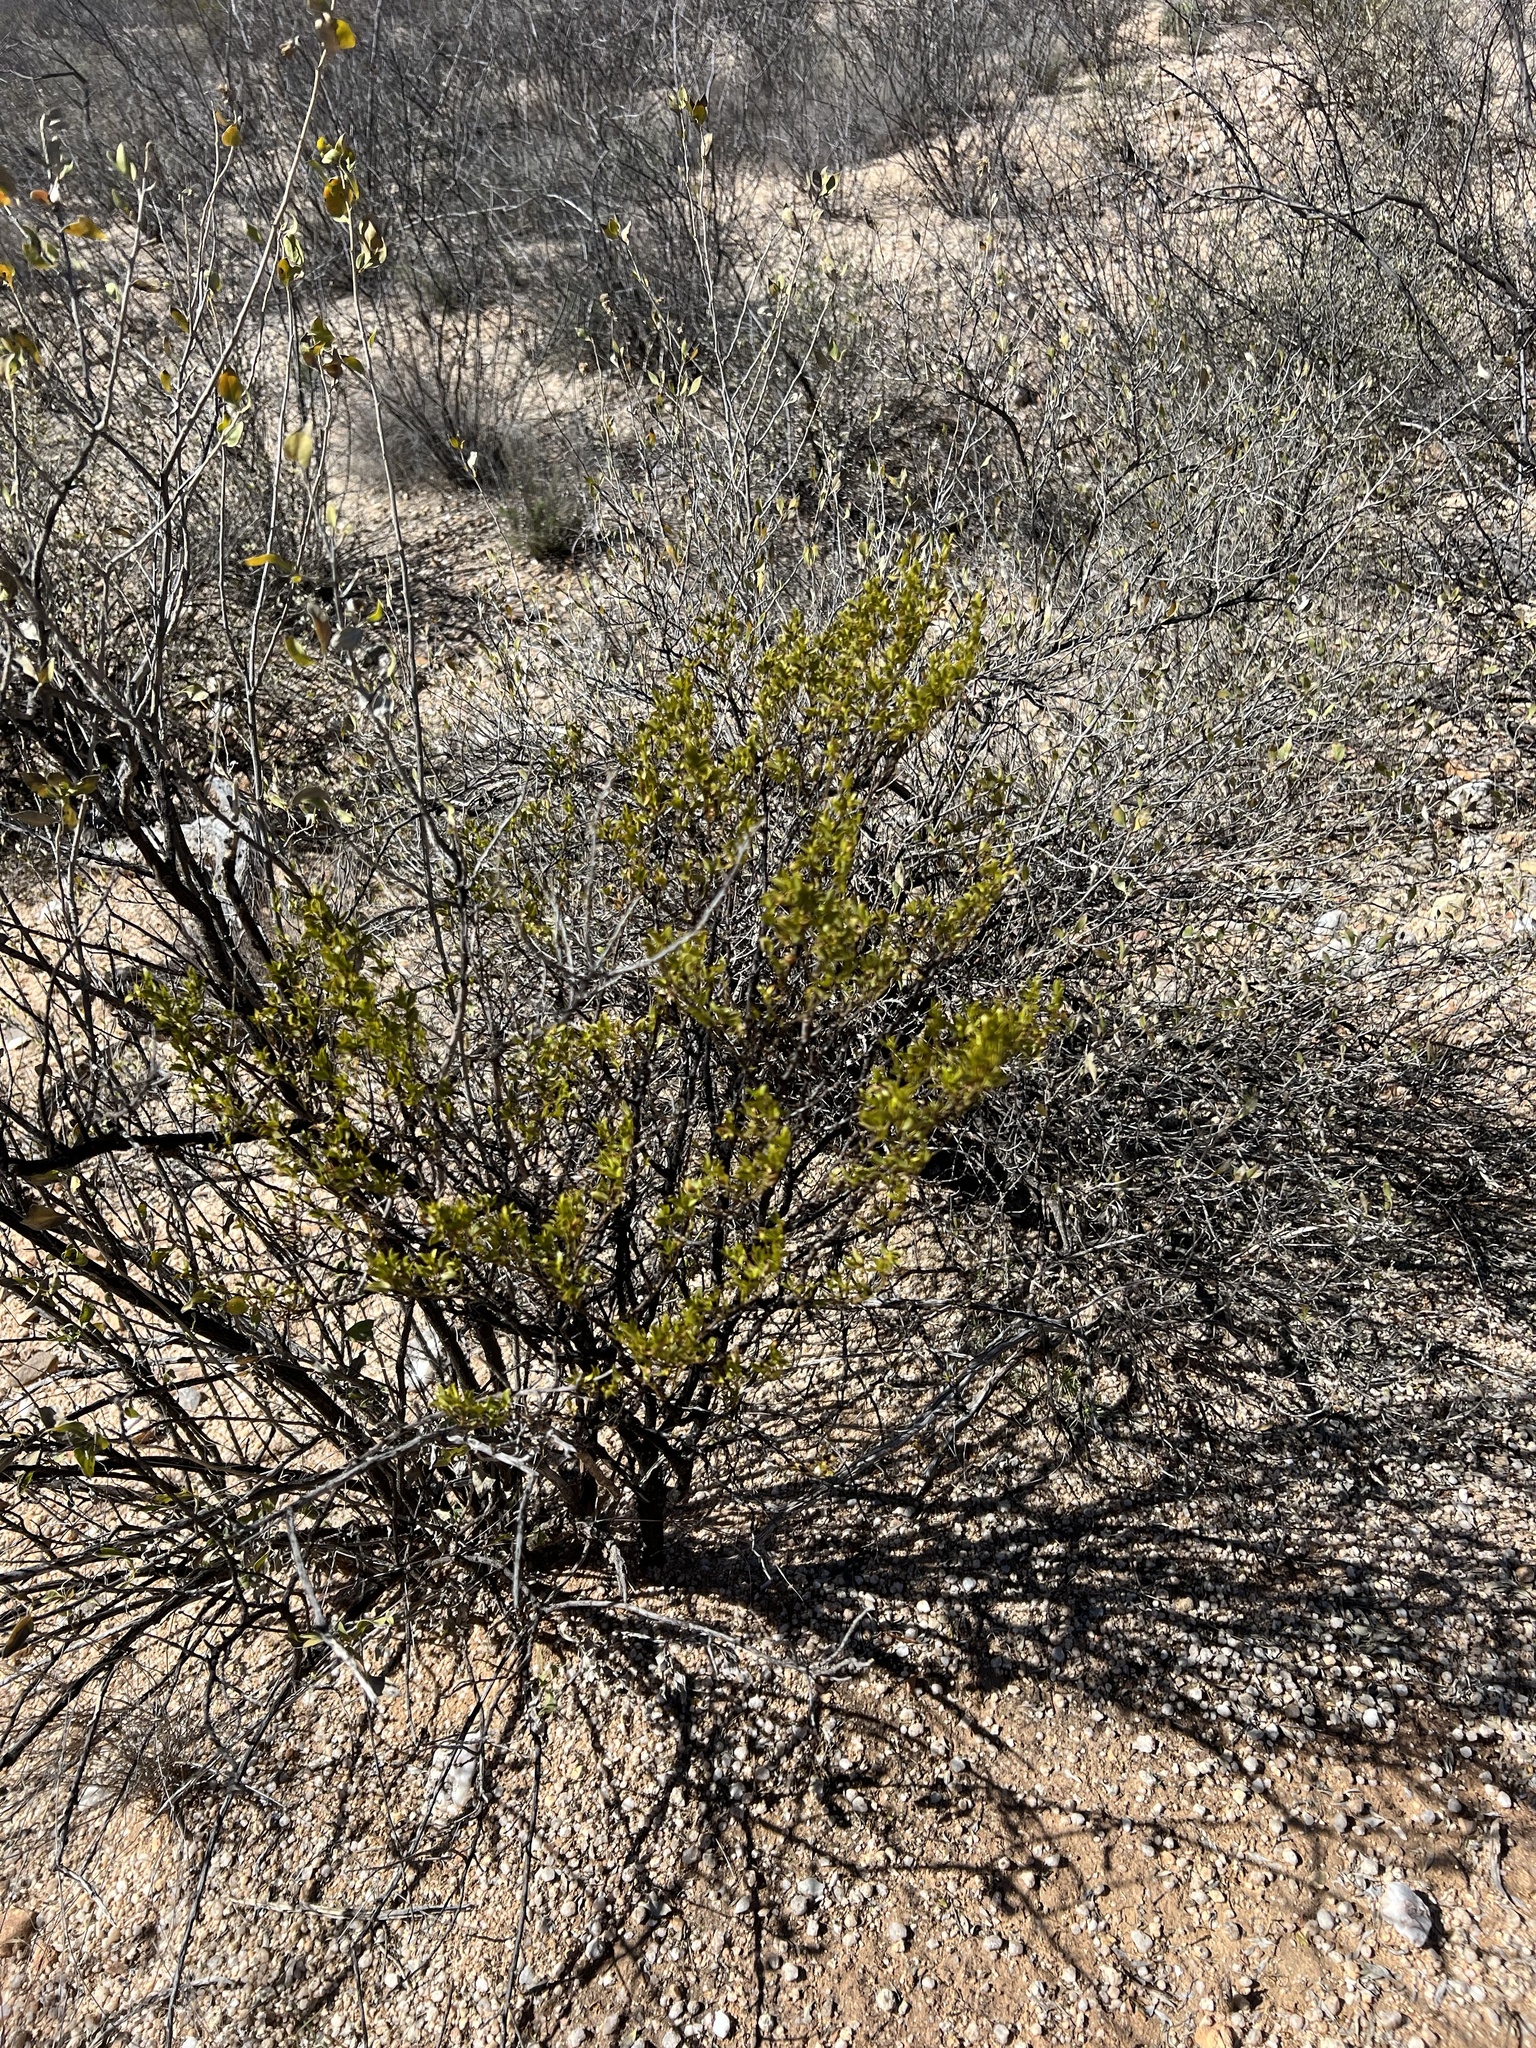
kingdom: Plantae
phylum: Tracheophyta
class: Magnoliopsida
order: Zygophyllales
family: Zygophyllaceae
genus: Larrea
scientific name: Larrea tridentata
